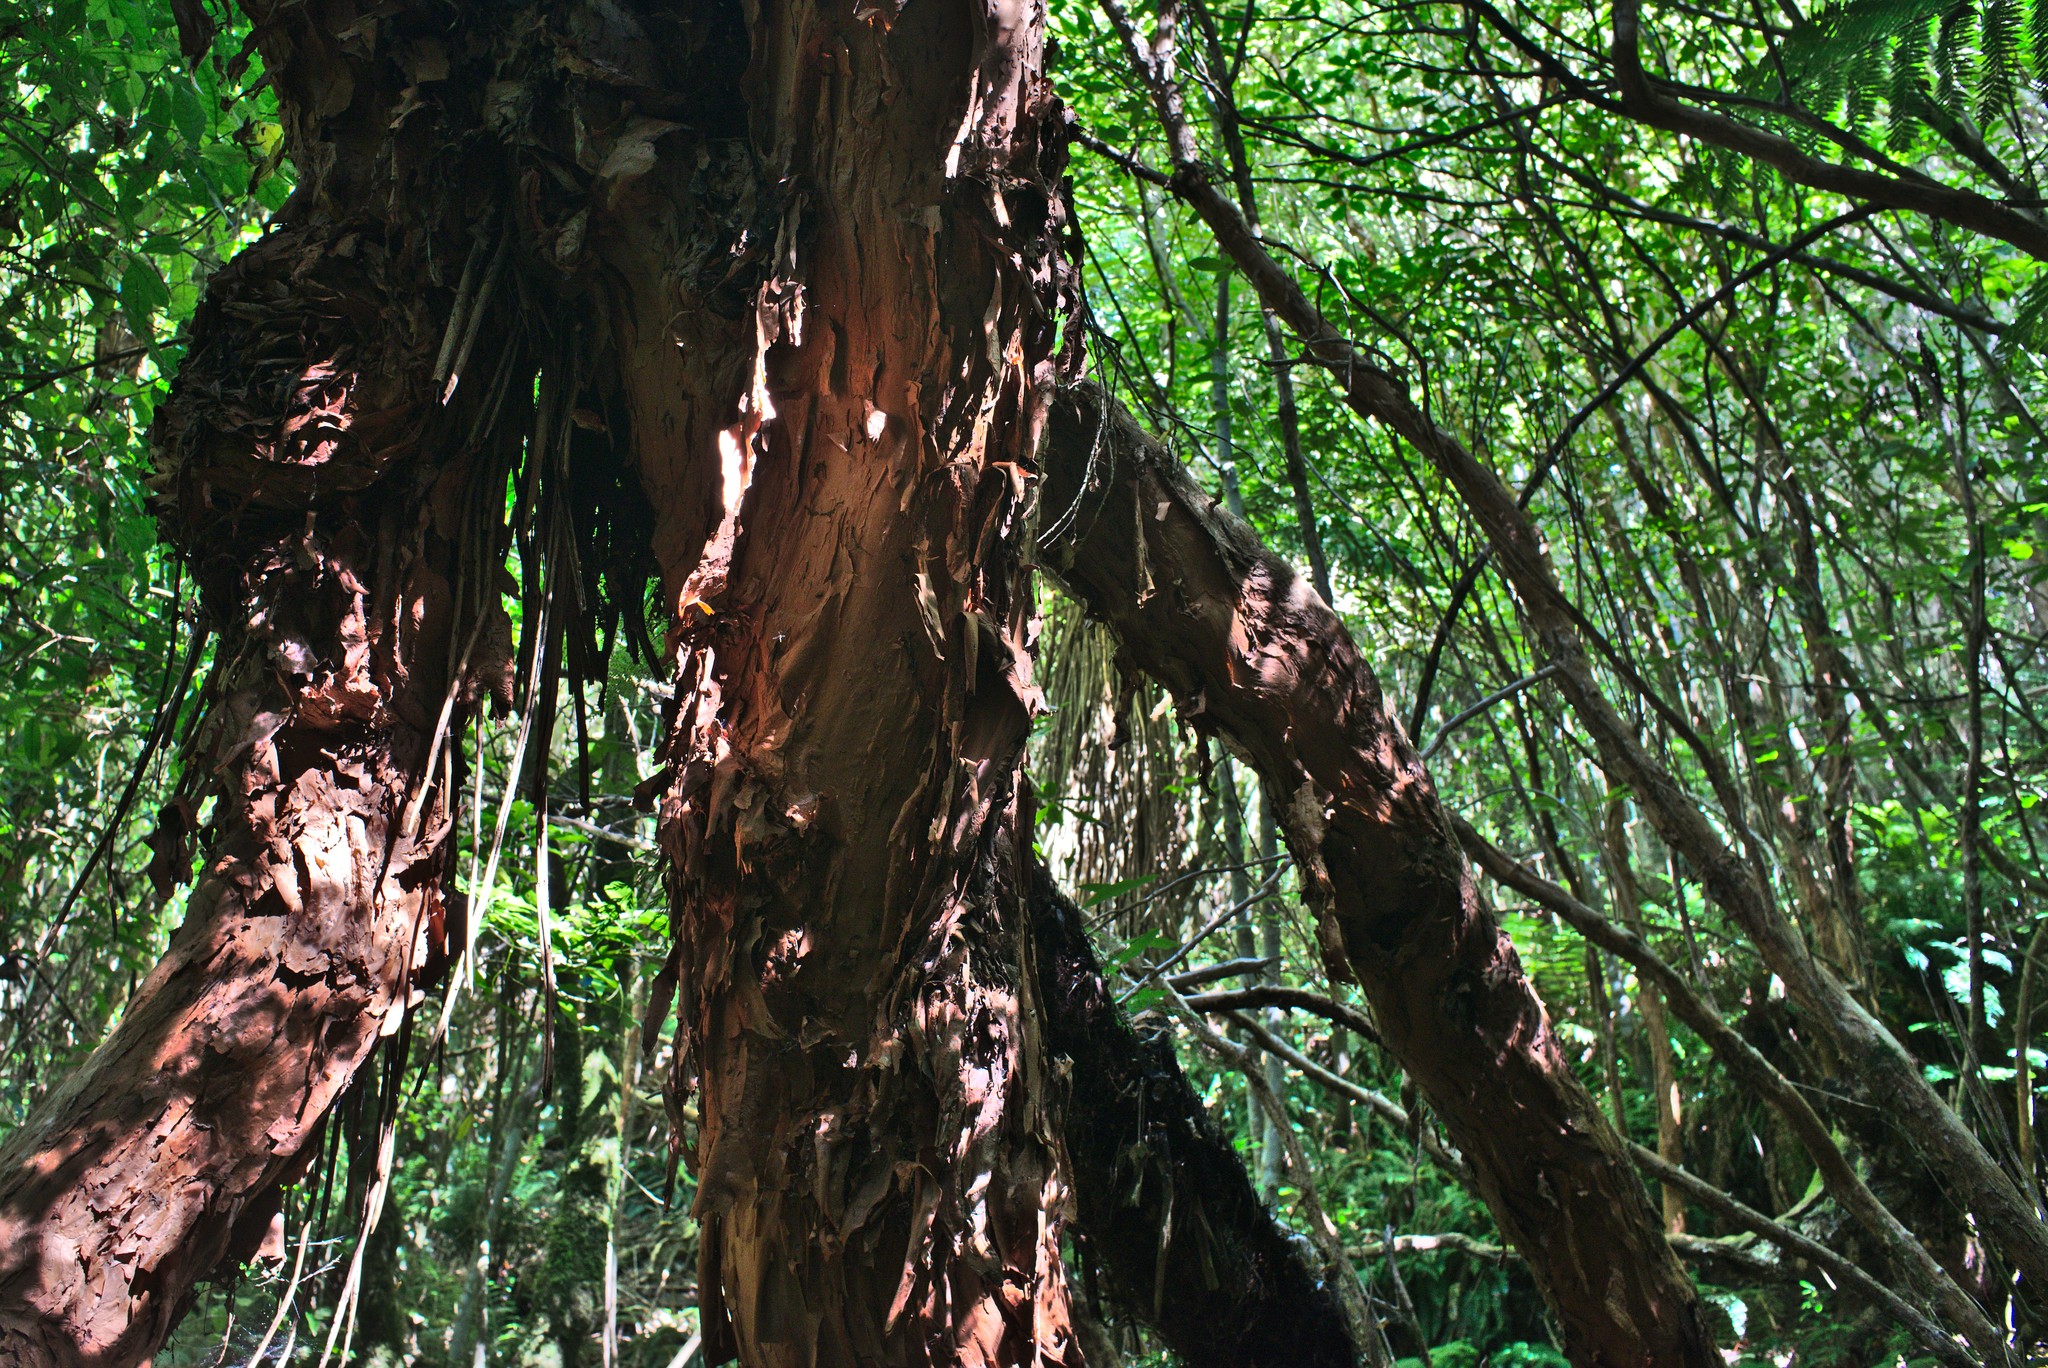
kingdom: Plantae
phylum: Tracheophyta
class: Magnoliopsida
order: Myrtales
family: Onagraceae
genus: Fuchsia
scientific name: Fuchsia excorticata
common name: Tree fuchsia
